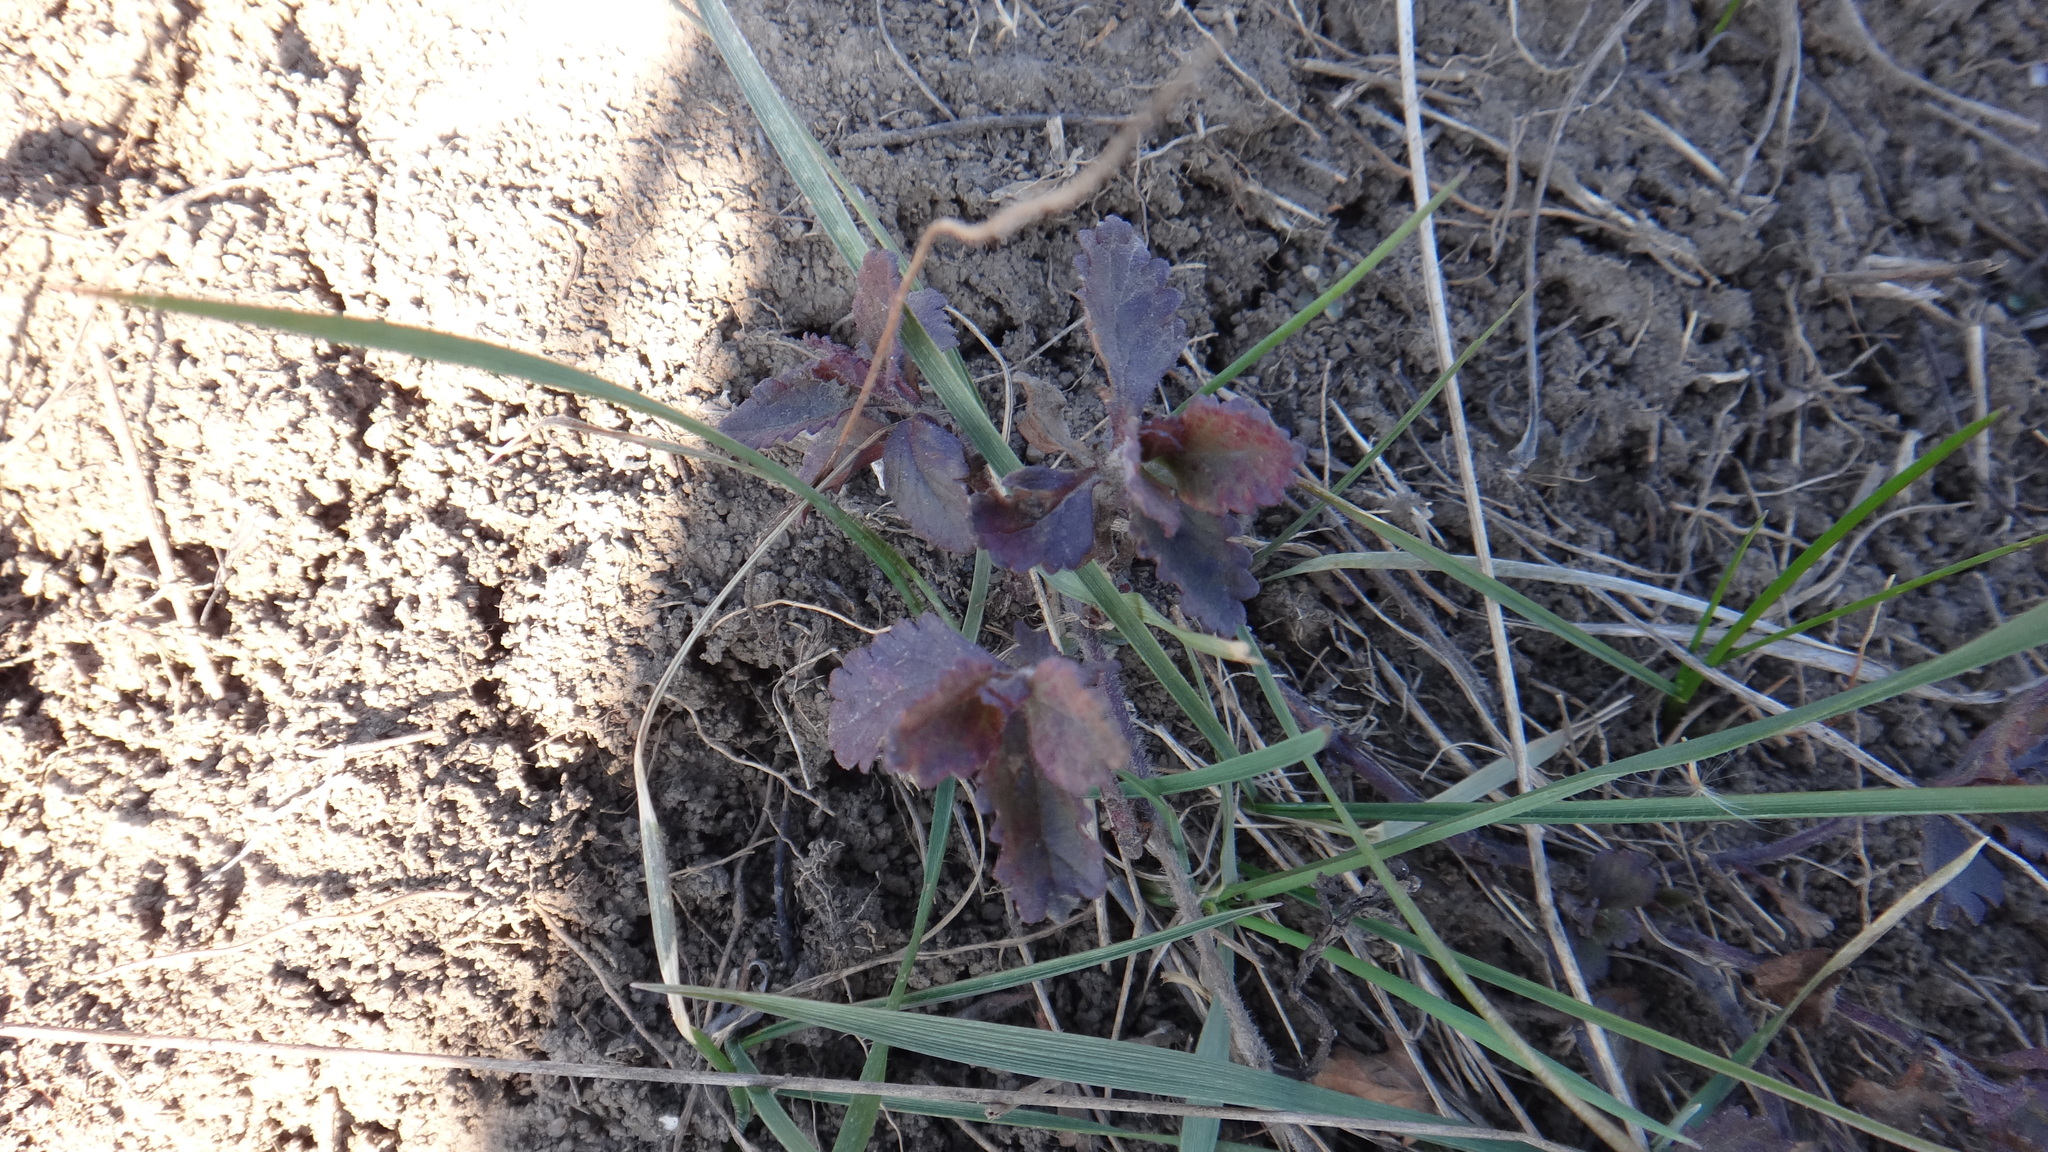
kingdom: Plantae
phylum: Tracheophyta
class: Magnoliopsida
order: Lamiales
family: Lamiaceae
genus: Teucrium
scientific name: Teucrium chamaedrys
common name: Wall germander
